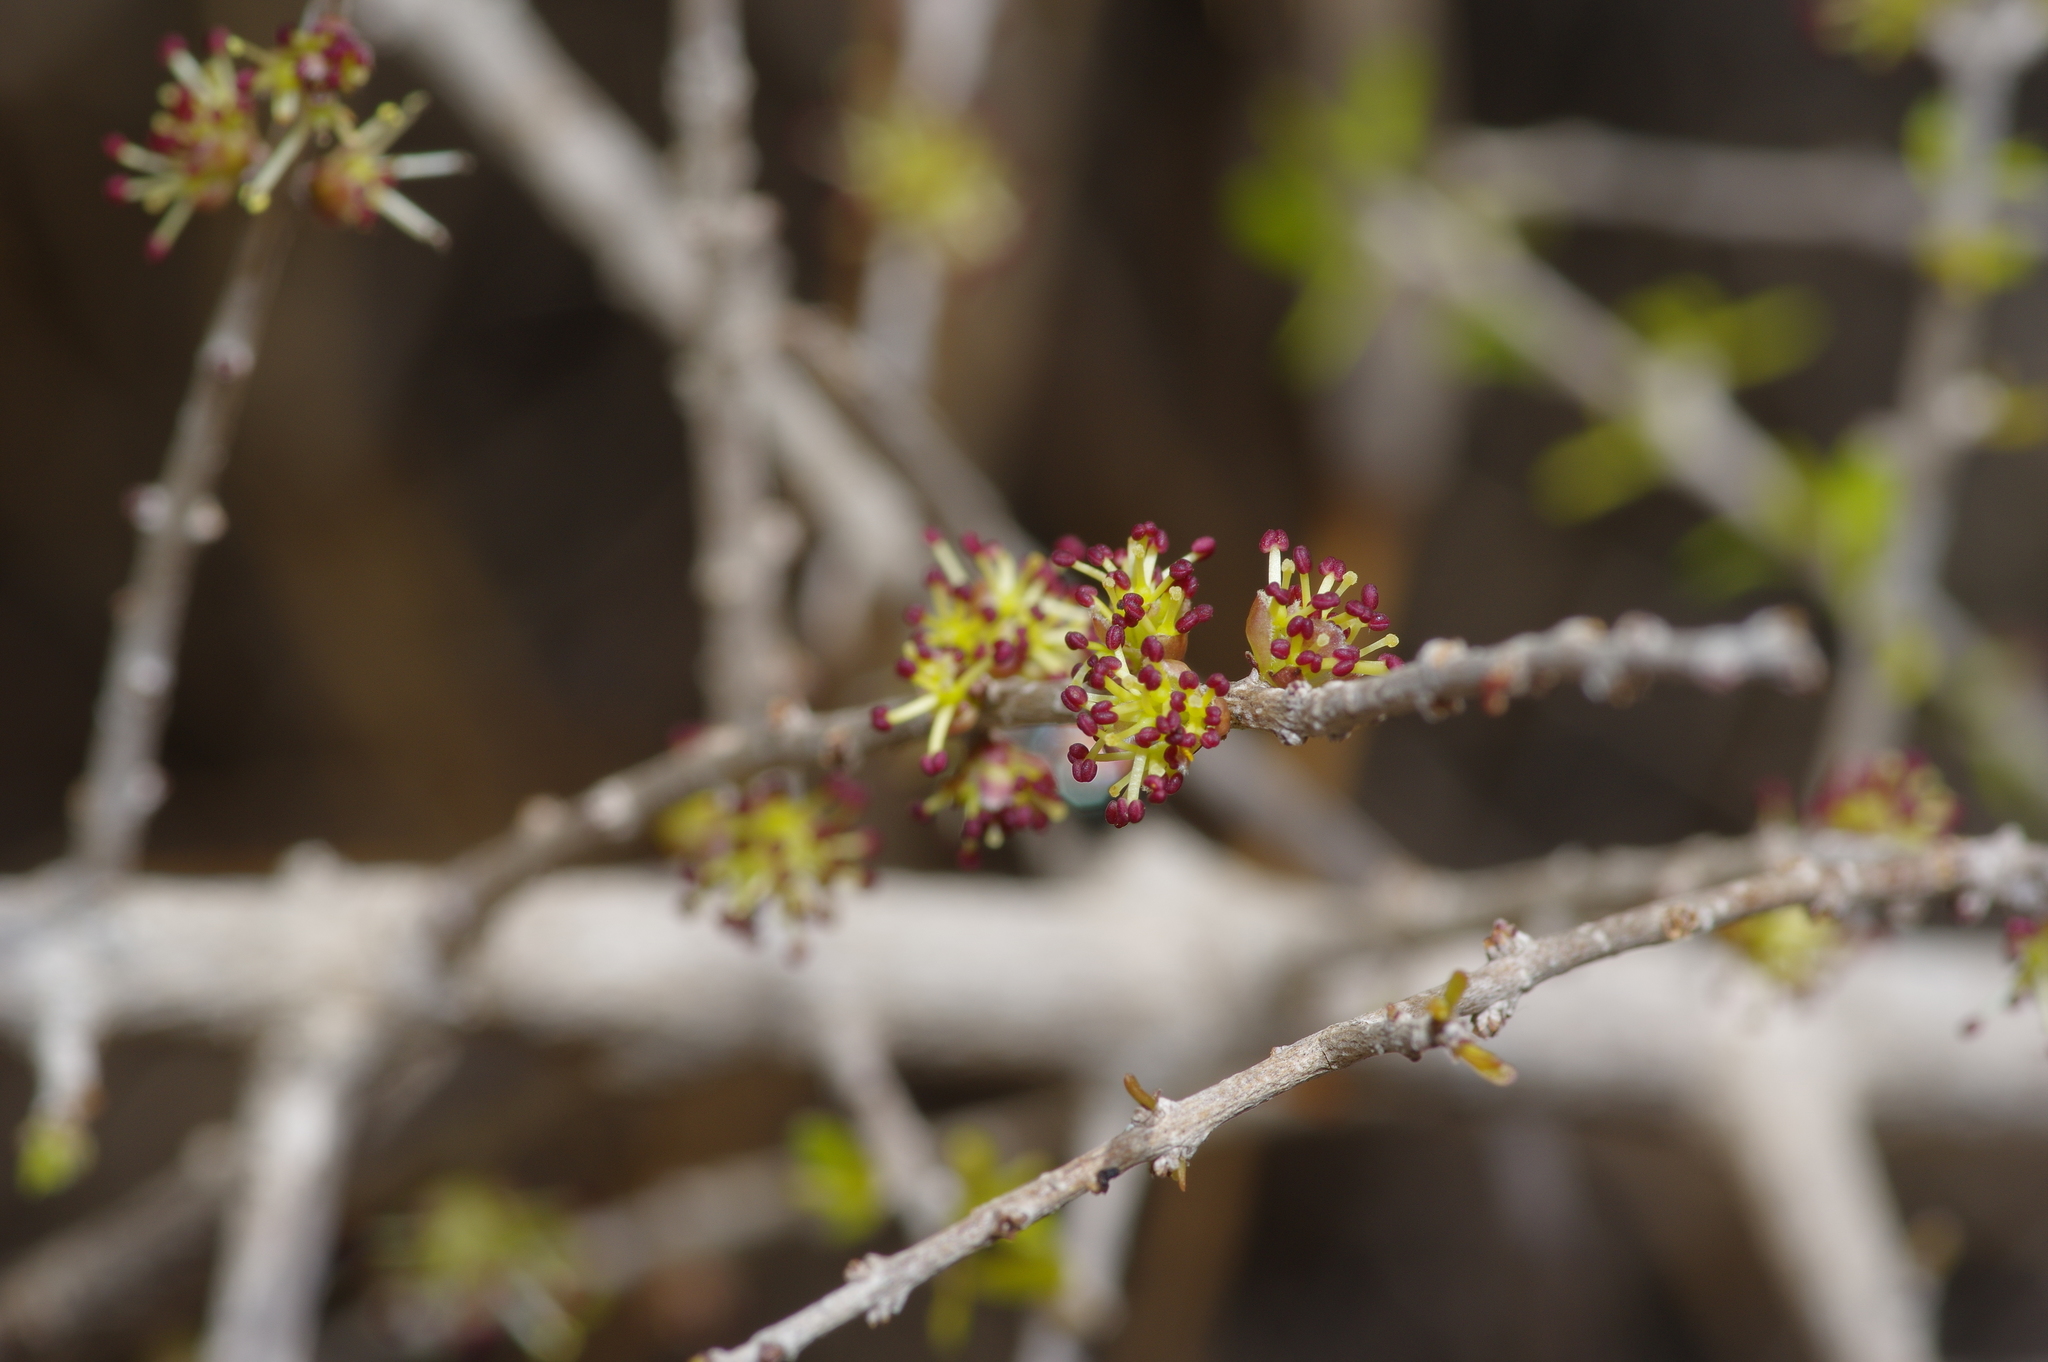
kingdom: Plantae
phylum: Tracheophyta
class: Magnoliopsida
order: Lamiales
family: Oleaceae
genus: Forestiera
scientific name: Forestiera angustifolia
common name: Elbowbush
